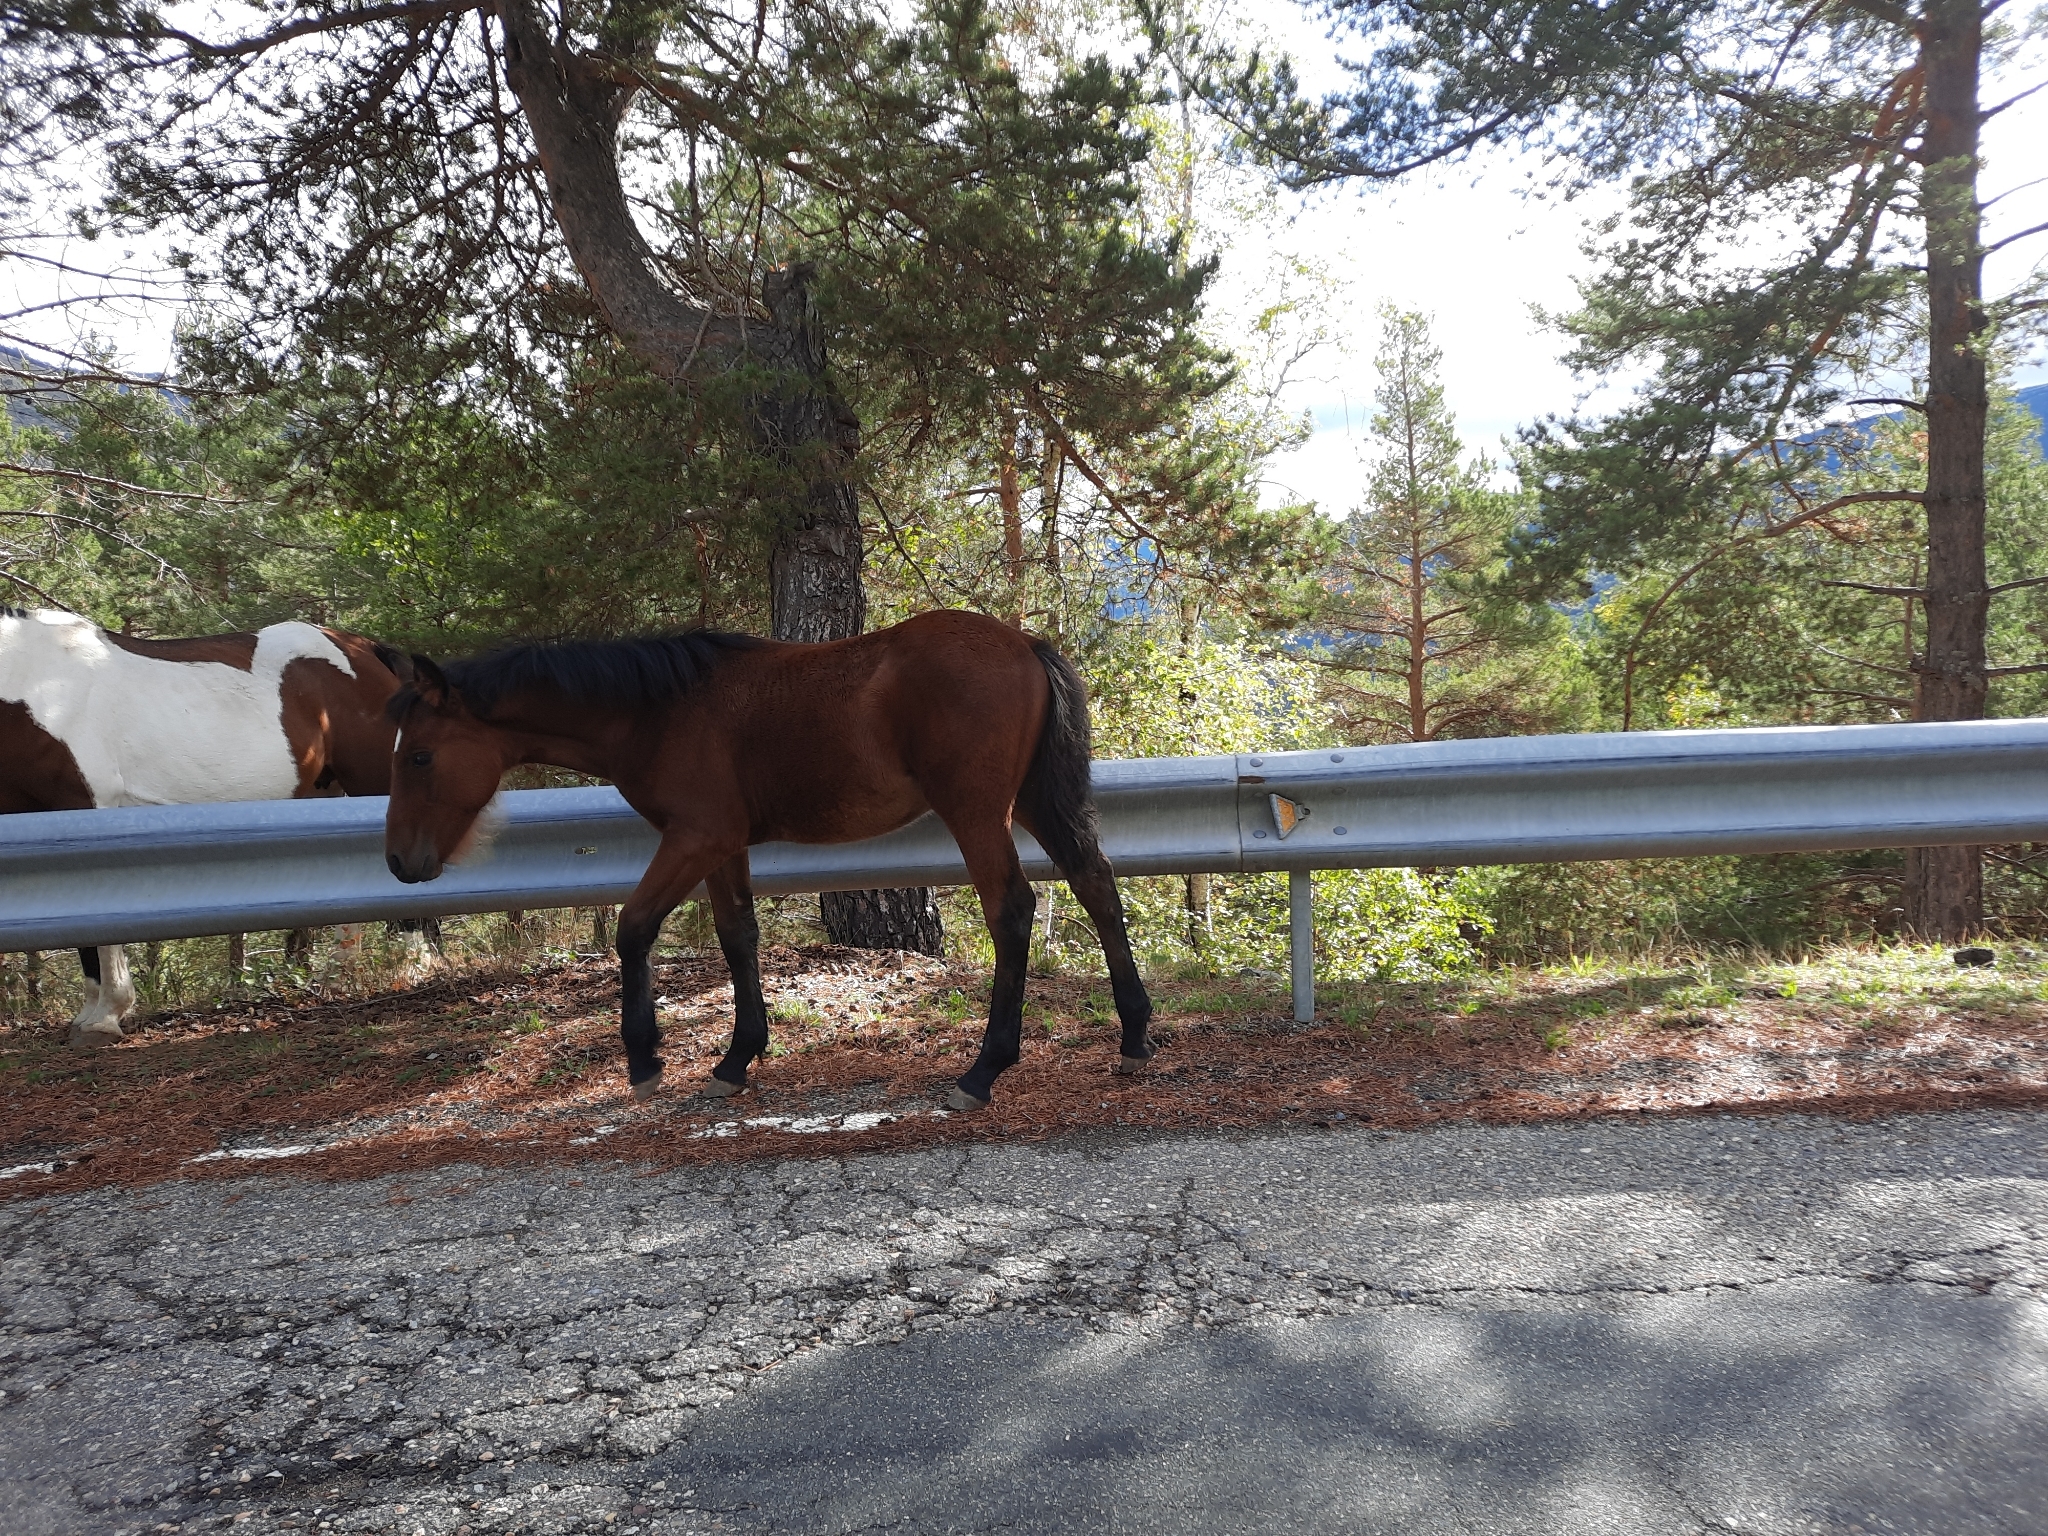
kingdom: Animalia
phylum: Chordata
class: Mammalia
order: Perissodactyla
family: Equidae
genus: Equus
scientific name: Equus caballus
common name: Horse
